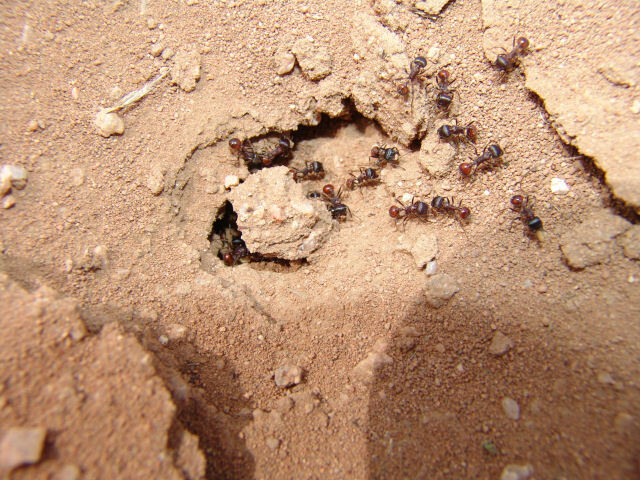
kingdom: Animalia
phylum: Arthropoda
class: Insecta
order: Hymenoptera
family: Formicidae
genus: Pogonomyrmex
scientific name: Pogonomyrmex rugosus
